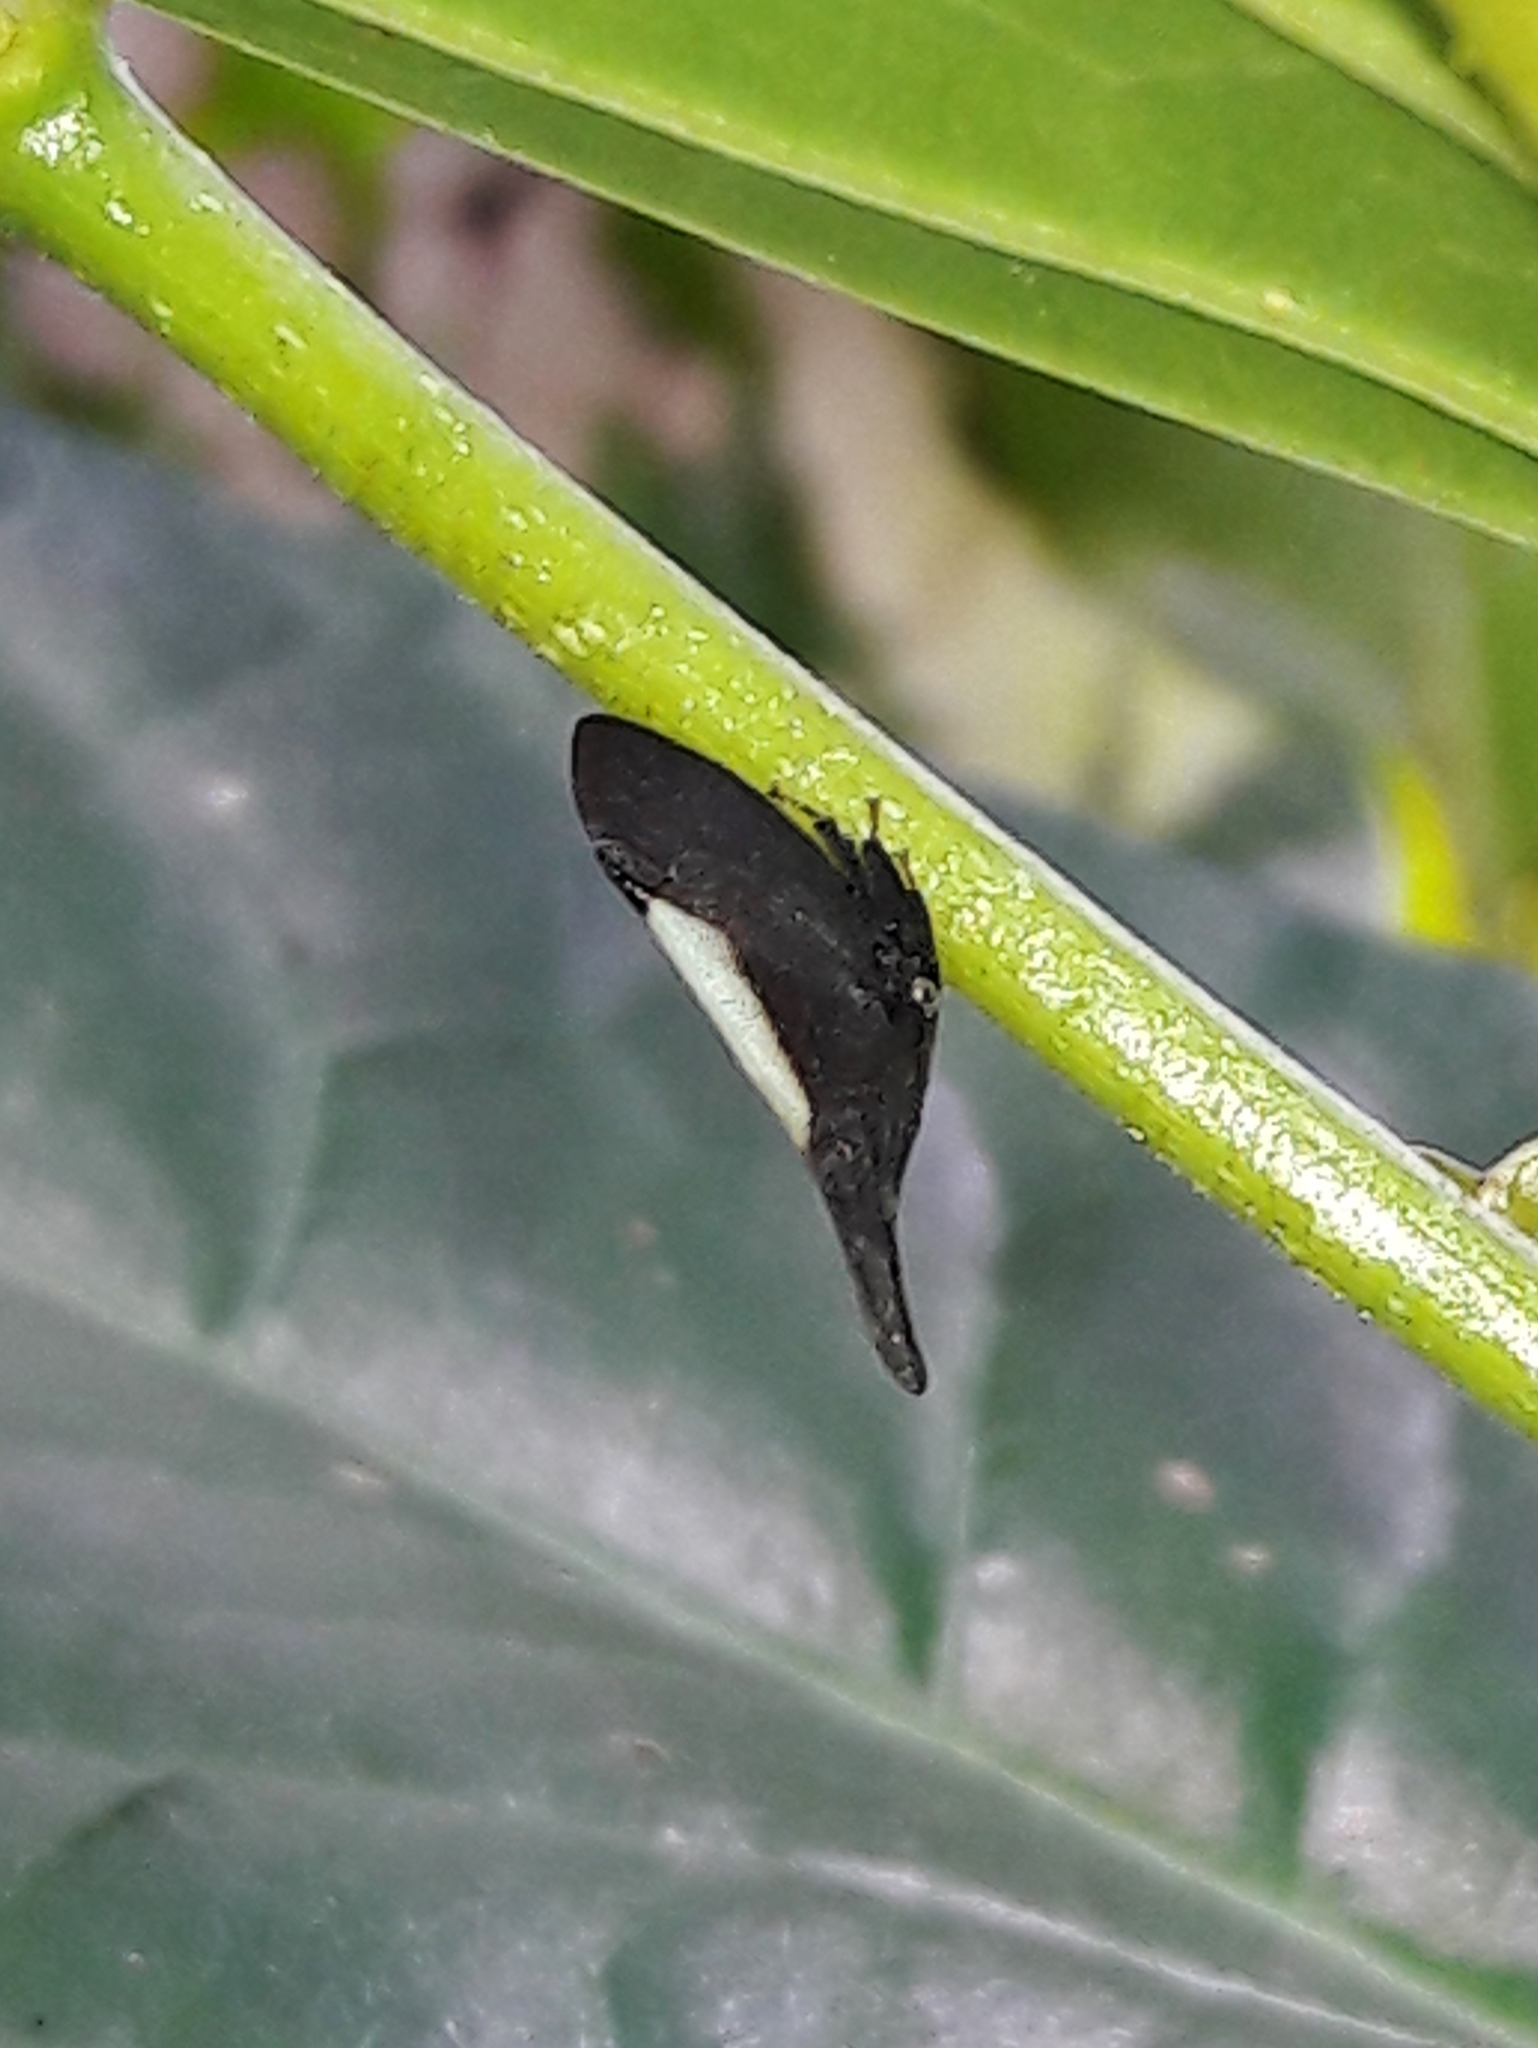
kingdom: Animalia
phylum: Arthropoda
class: Insecta
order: Hemiptera
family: Membracidae
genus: Enchenopa
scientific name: Enchenopa albidorsa
